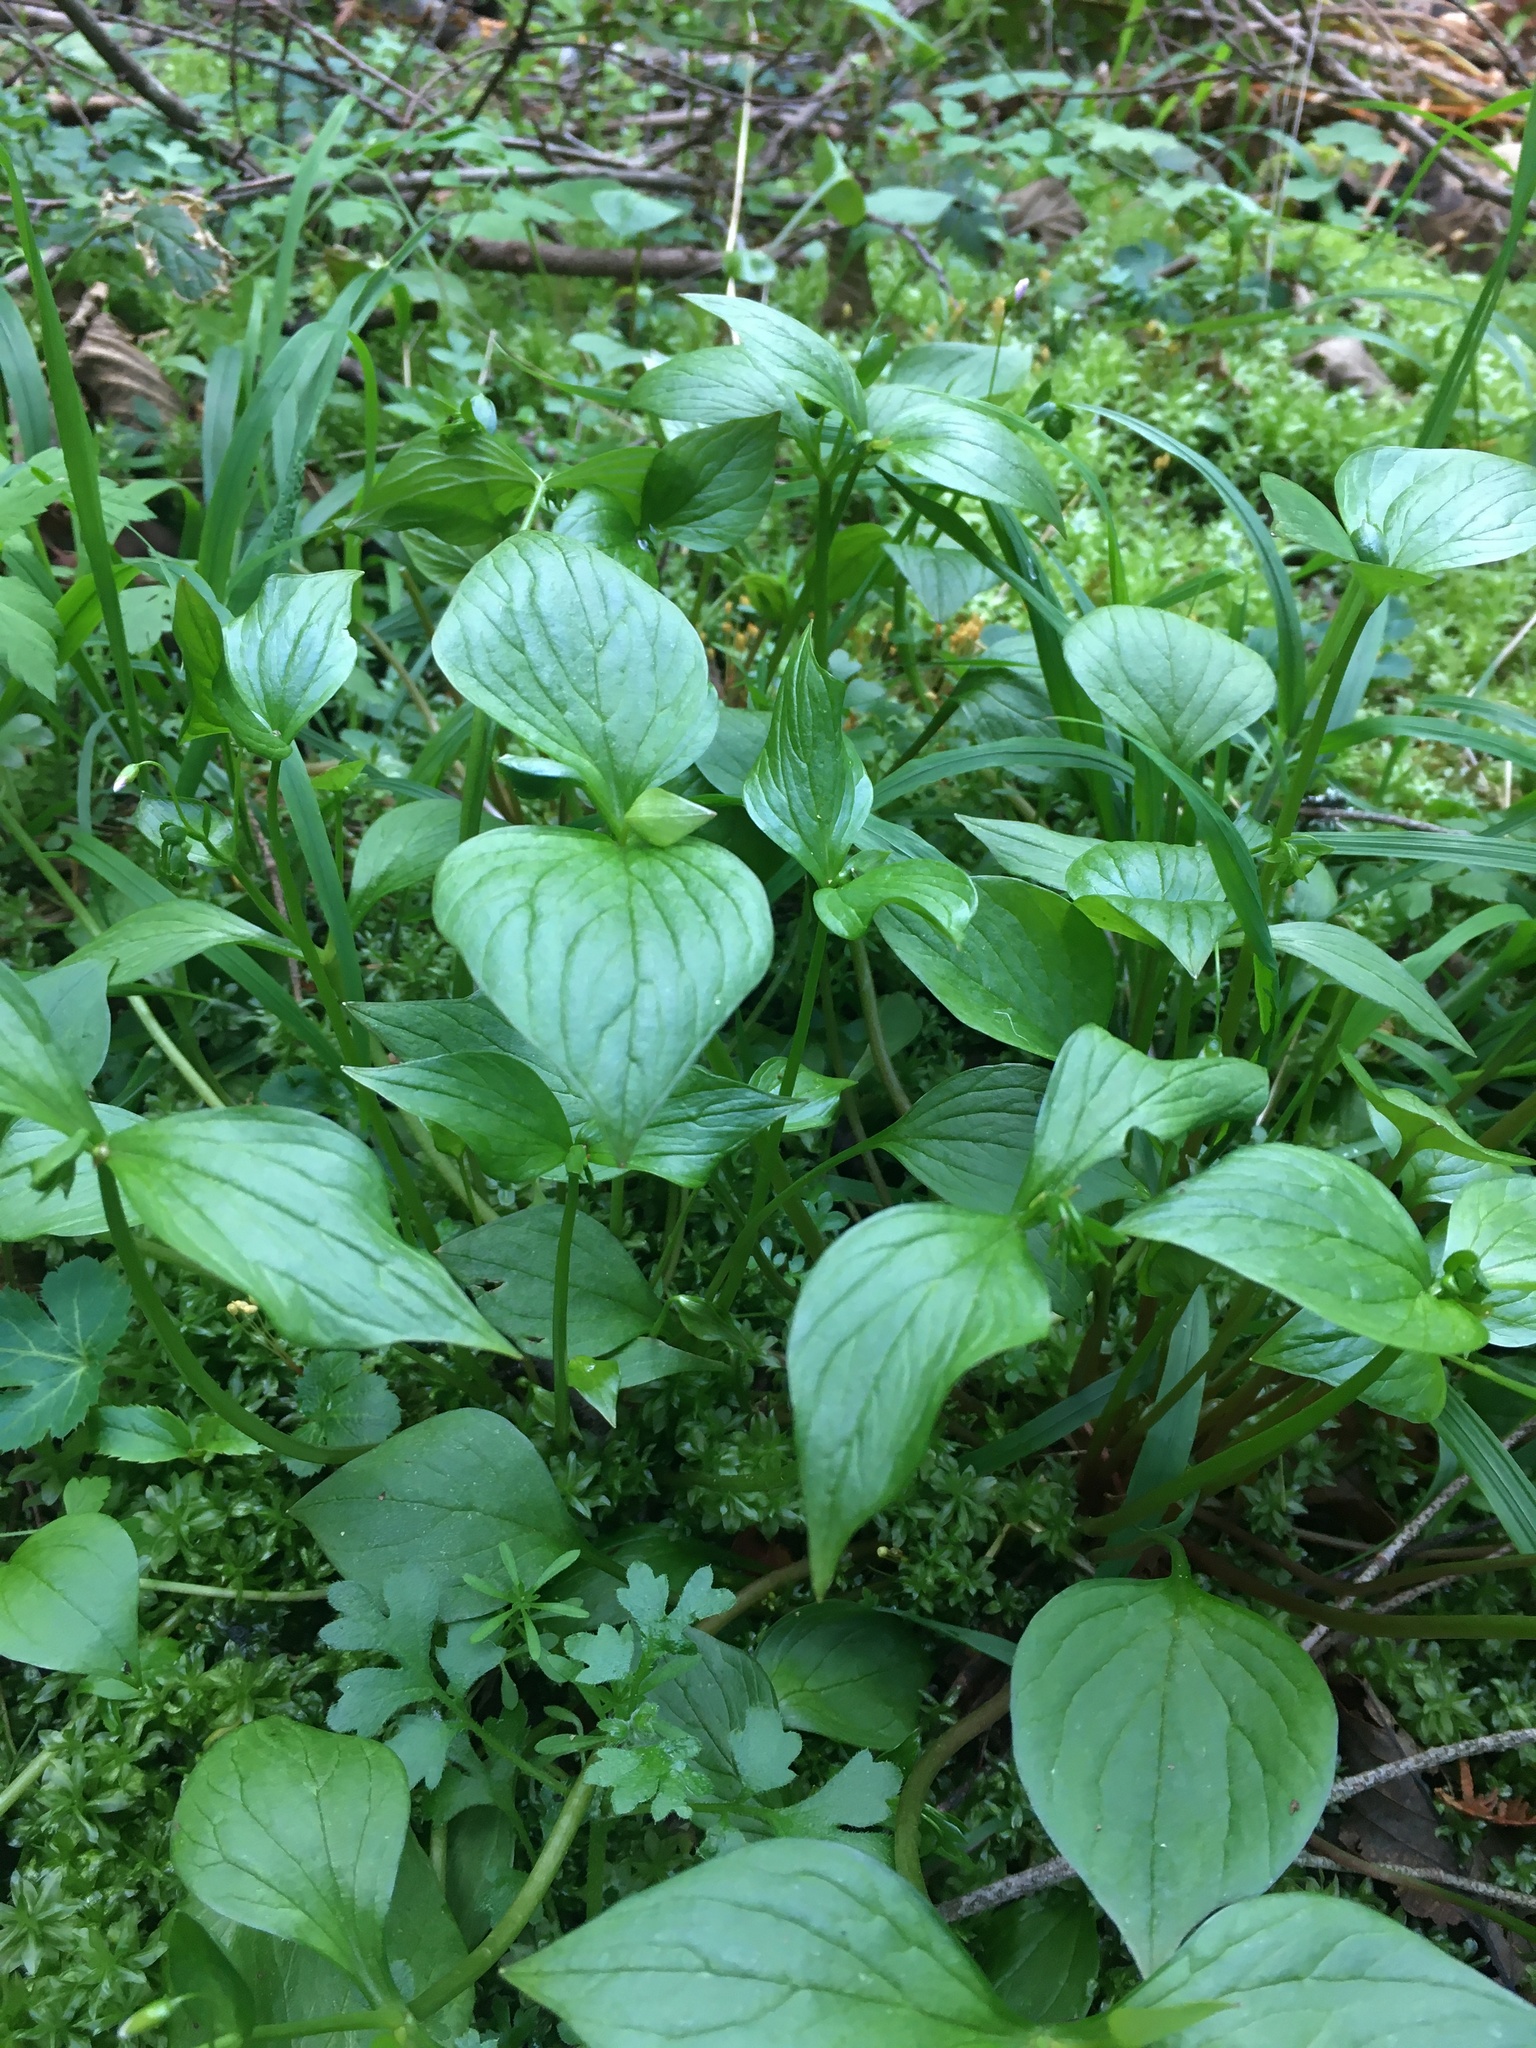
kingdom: Plantae
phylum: Tracheophyta
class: Magnoliopsida
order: Caryophyllales
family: Montiaceae
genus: Claytonia
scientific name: Claytonia sibirica
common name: Pink purslane
